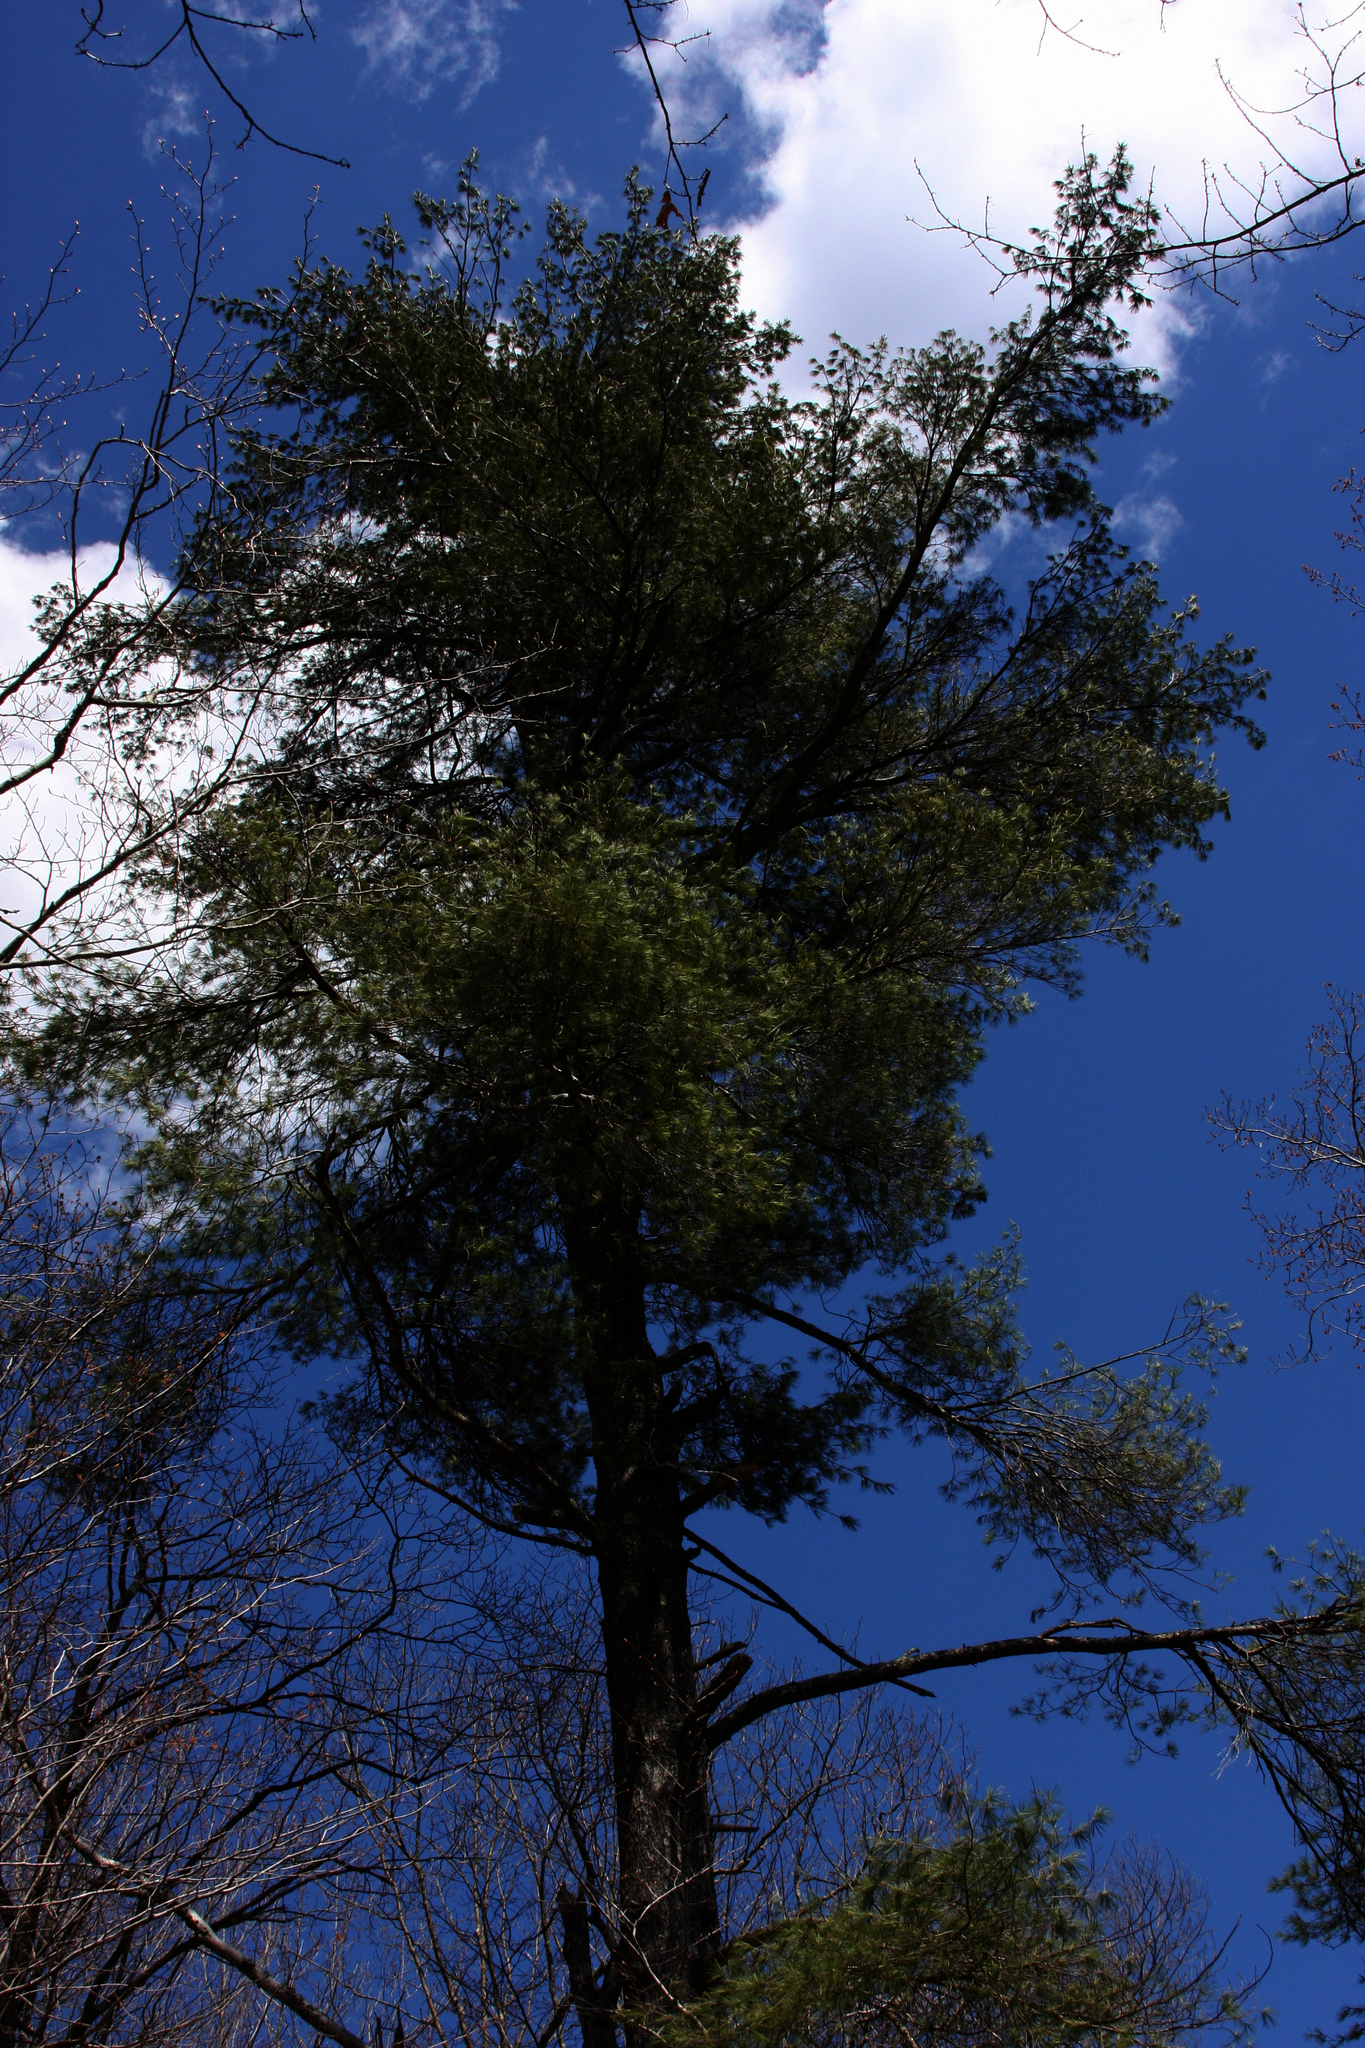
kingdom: Plantae
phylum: Tracheophyta
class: Pinopsida
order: Pinales
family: Pinaceae
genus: Pinus
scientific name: Pinus strobus
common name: Weymouth pine
